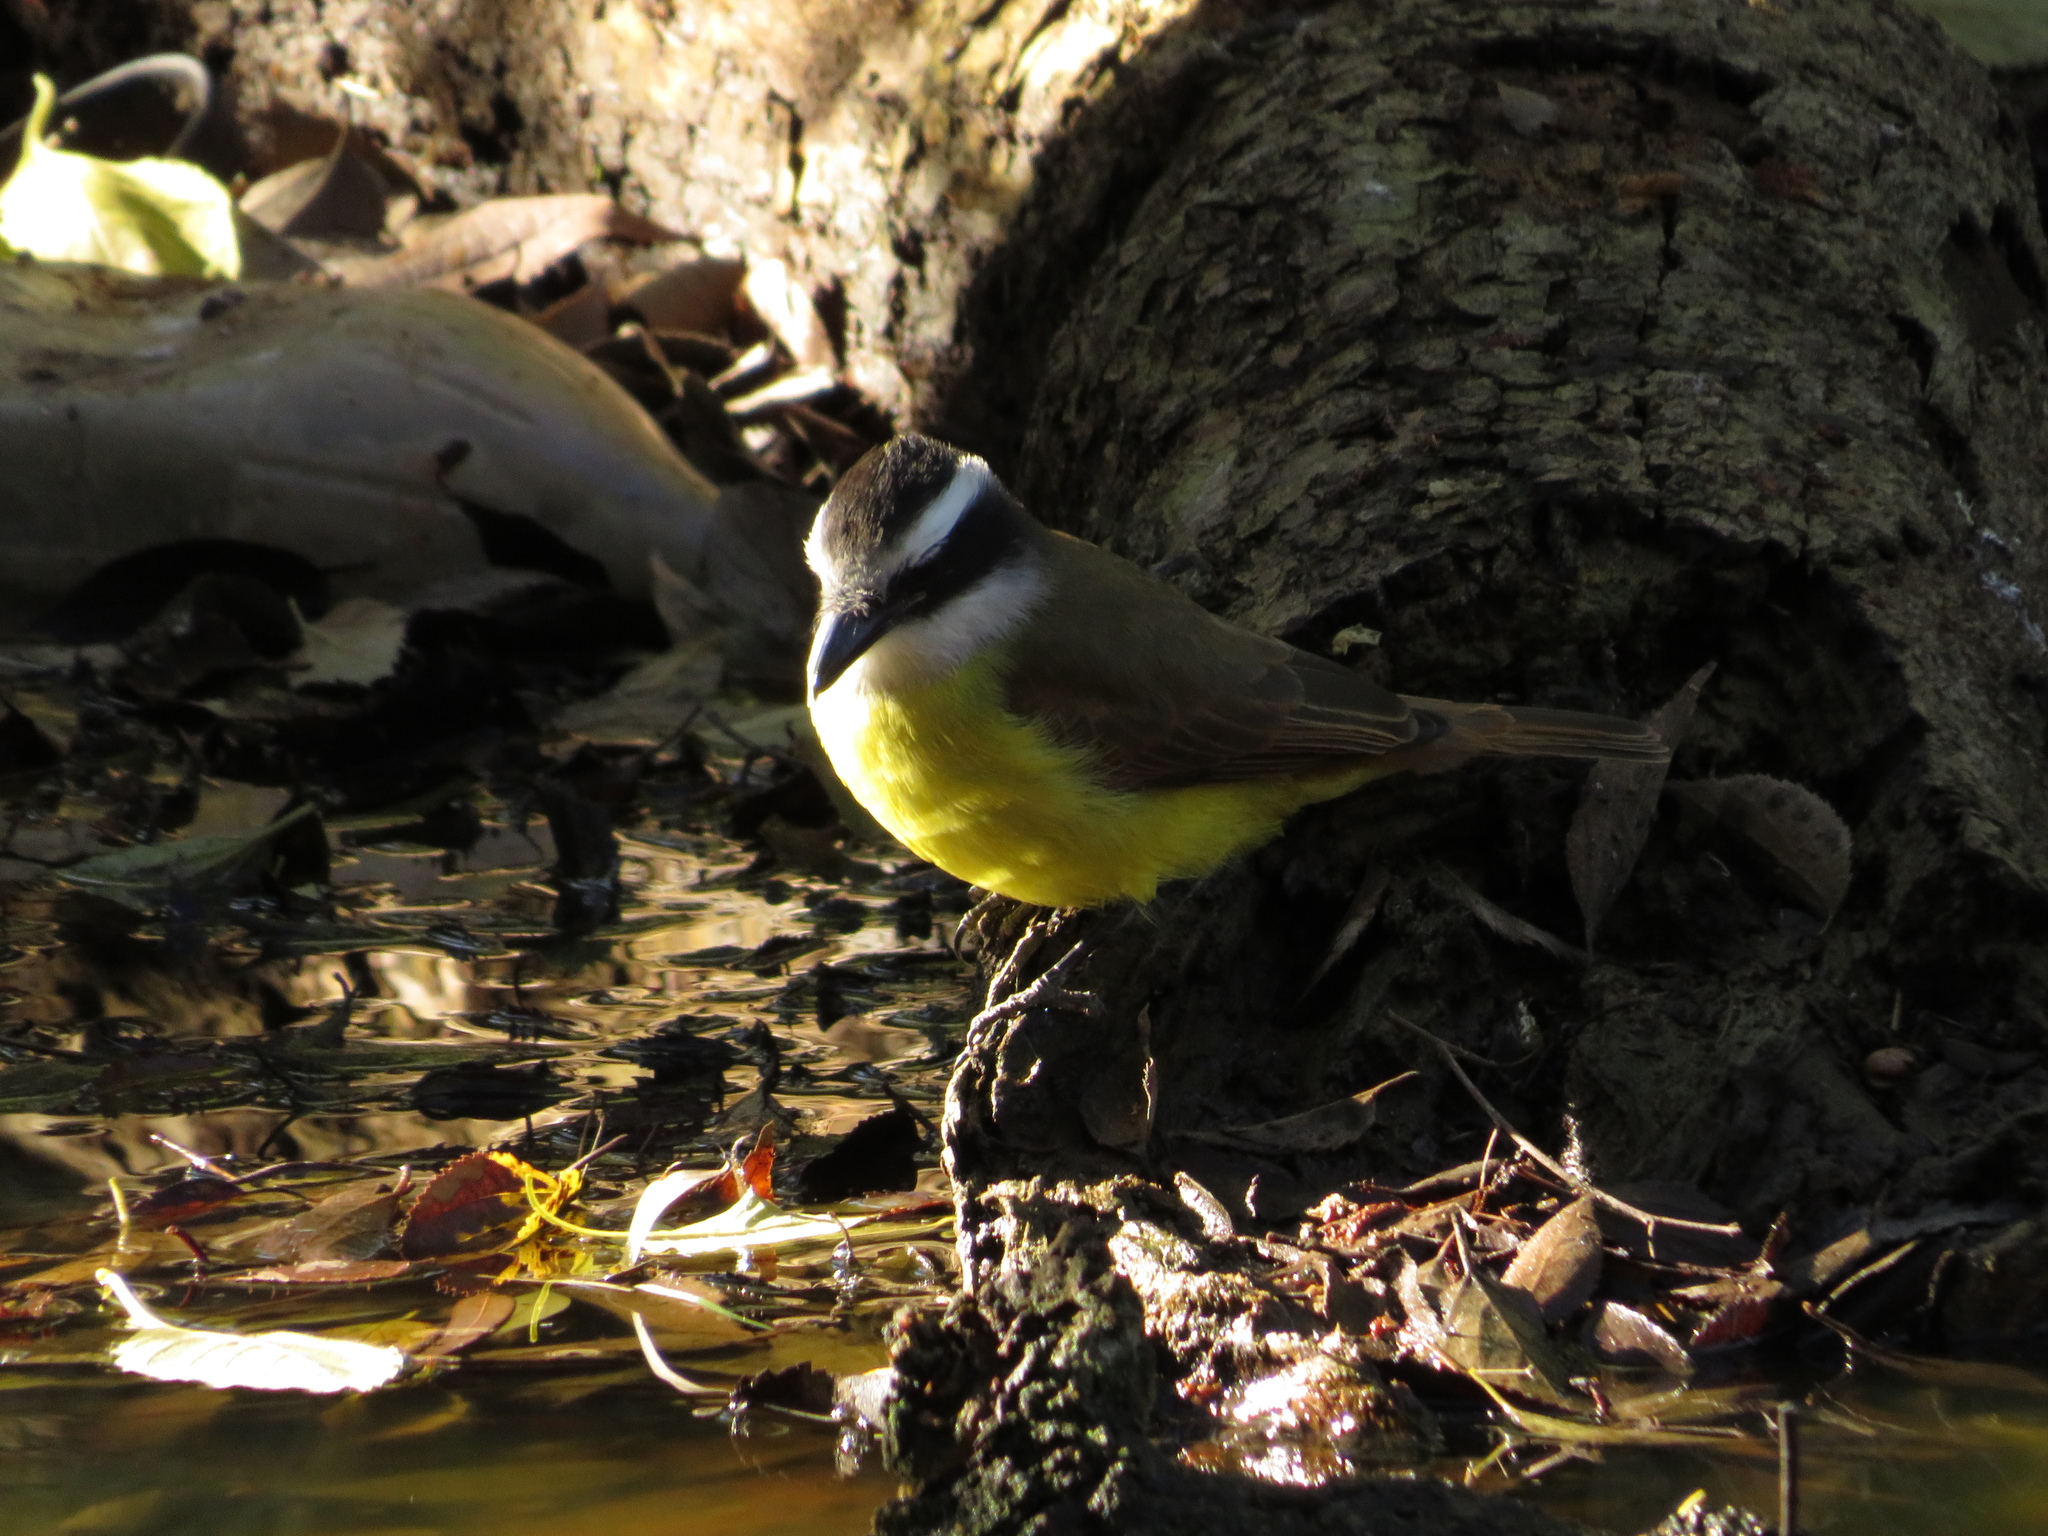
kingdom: Animalia
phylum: Chordata
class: Aves
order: Passeriformes
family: Tyrannidae
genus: Pitangus
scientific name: Pitangus sulphuratus
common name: Great kiskadee
